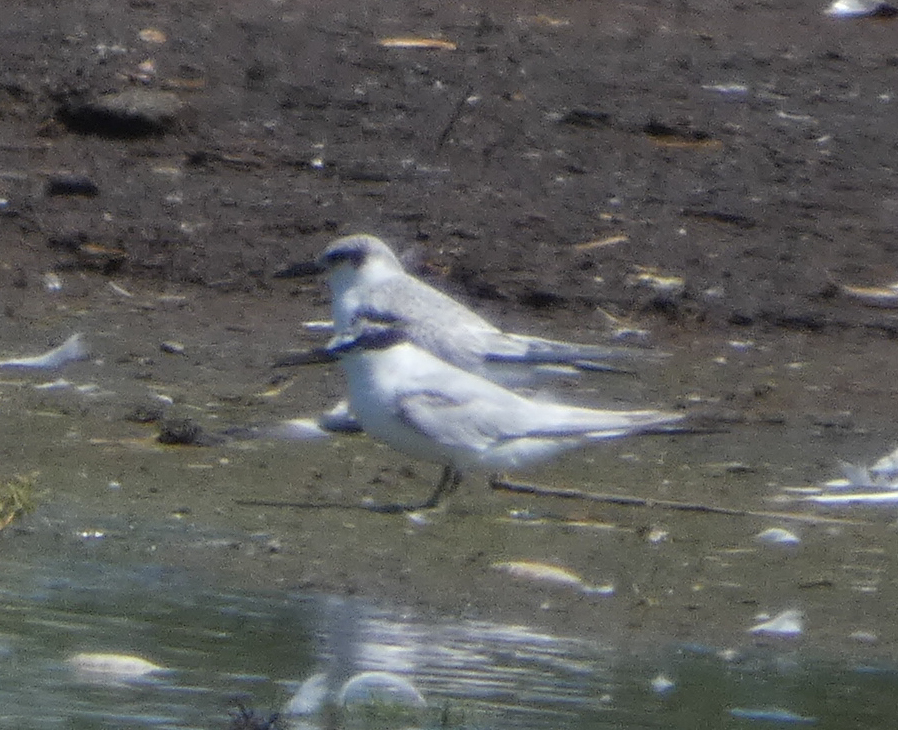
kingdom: Animalia
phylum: Chordata
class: Aves
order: Charadriiformes
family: Laridae
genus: Sternula
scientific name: Sternula antillarum
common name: Least tern
